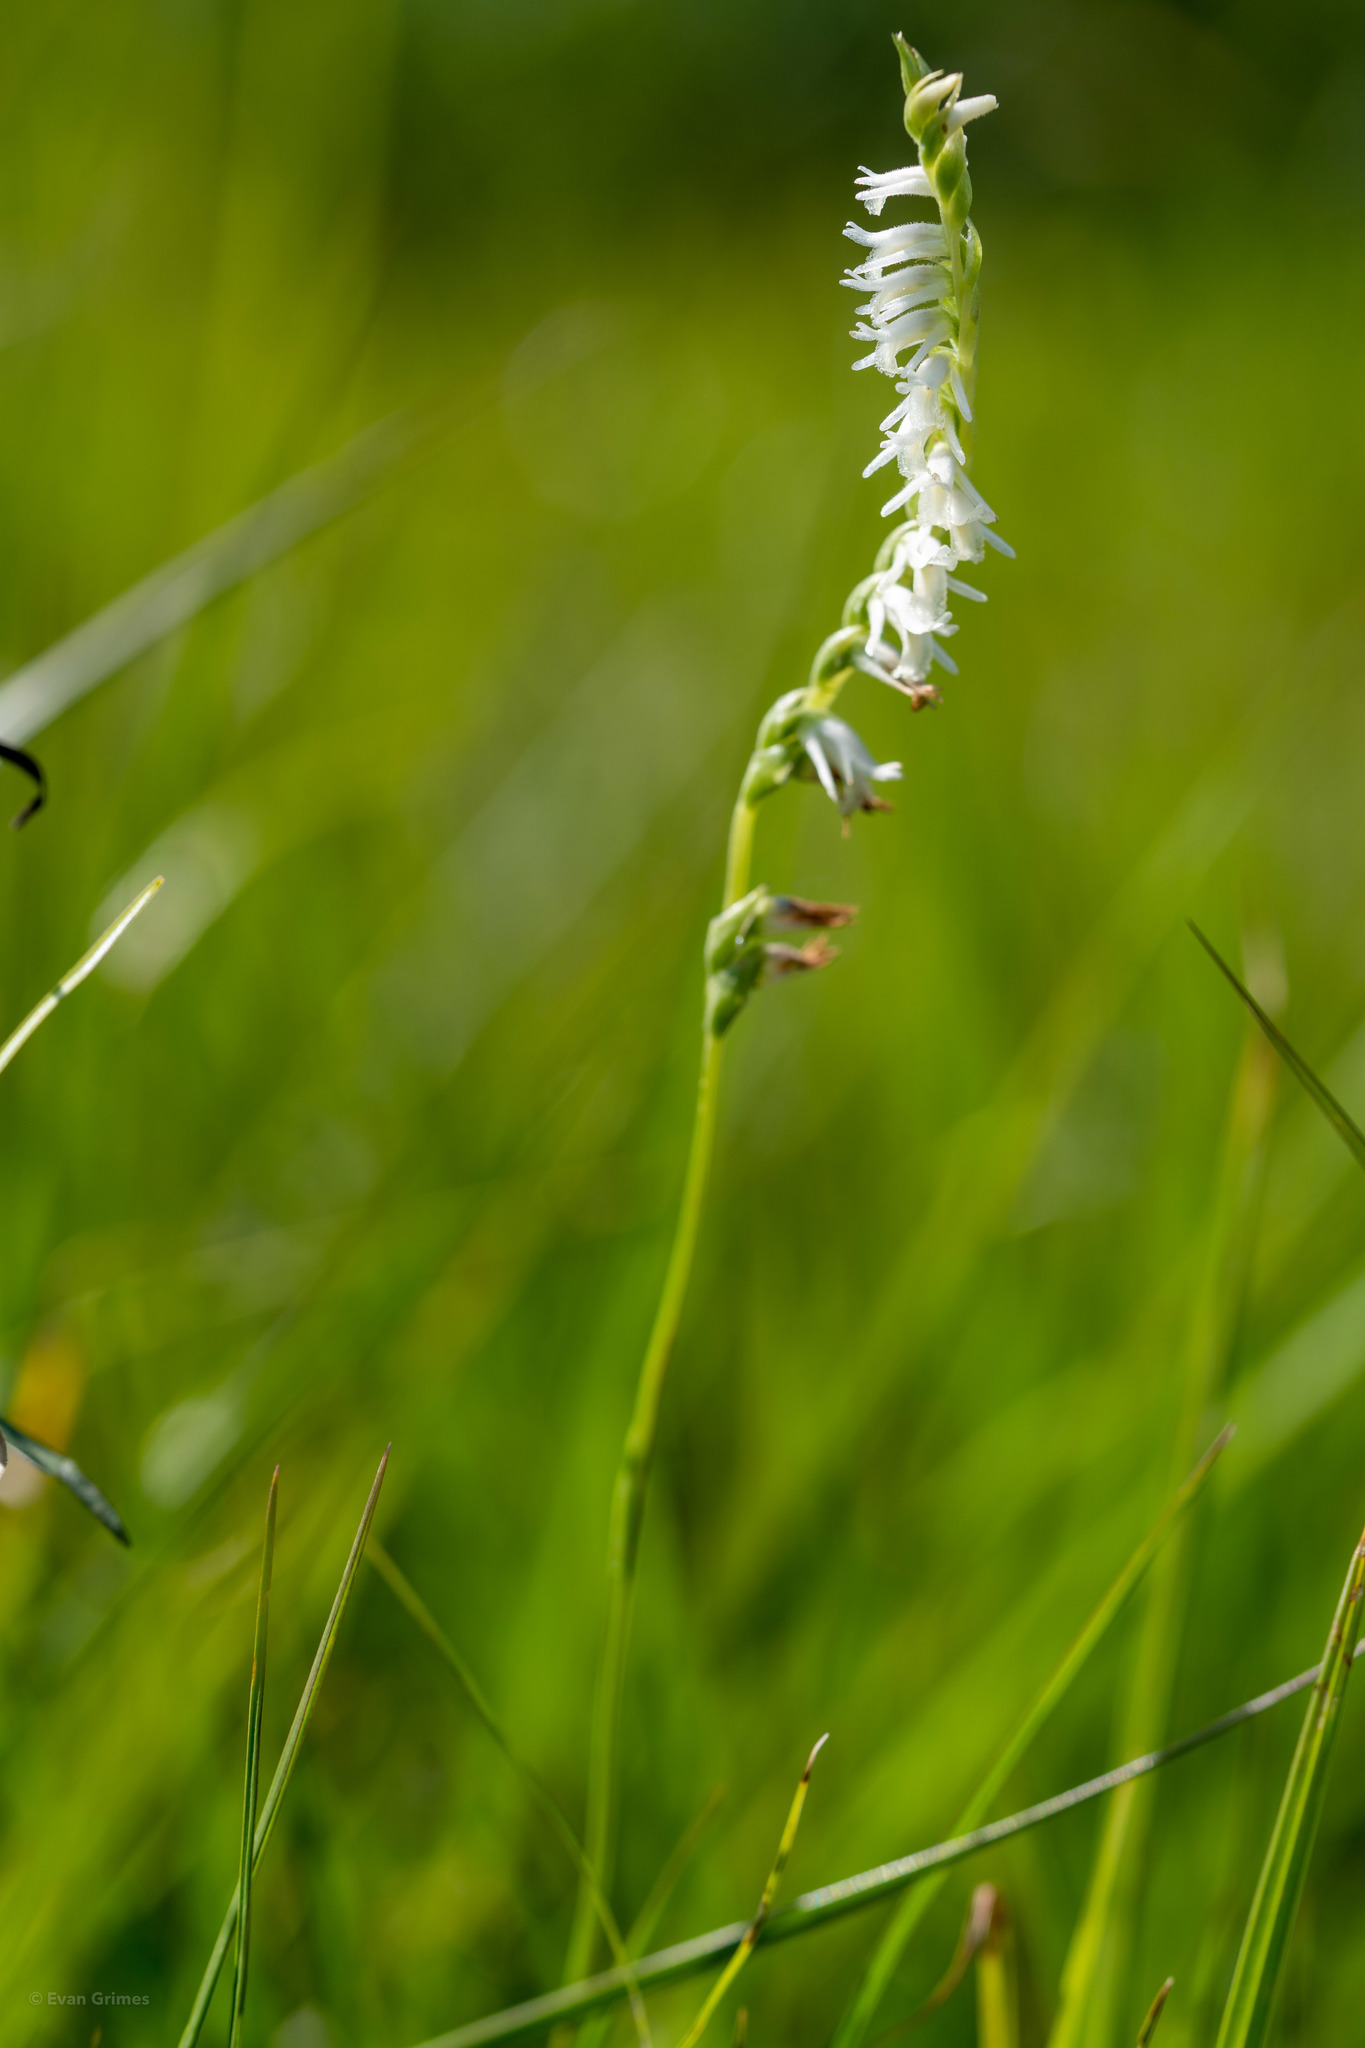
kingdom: Plantae
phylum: Tracheophyta
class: Liliopsida
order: Asparagales
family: Orchidaceae
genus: Spiranthes
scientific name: Spiranthes vernalis
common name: Spring ladies'-tresses
